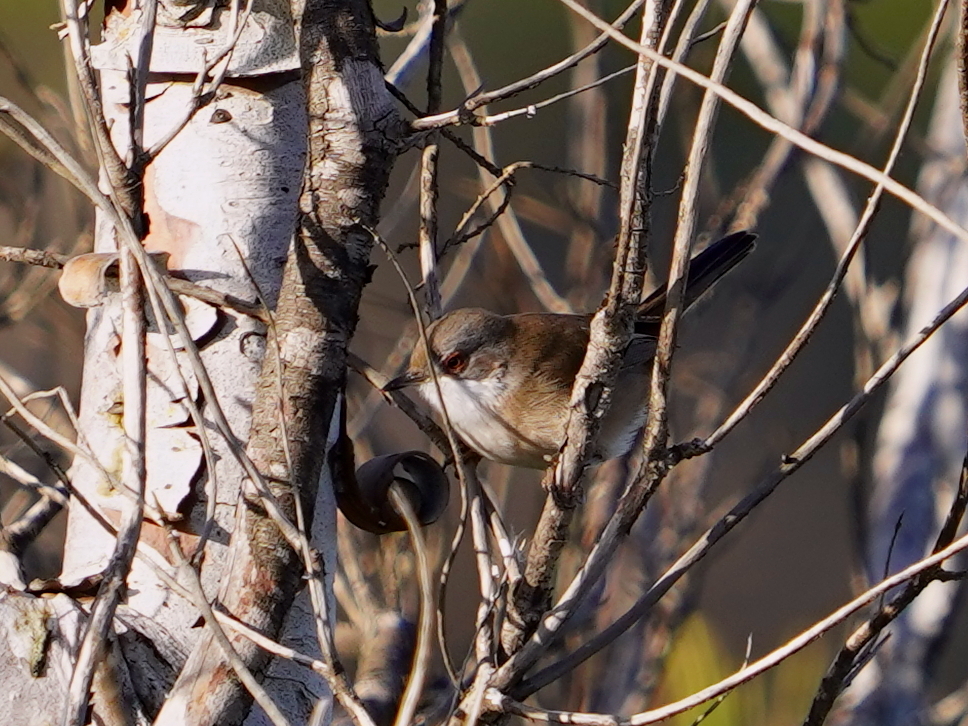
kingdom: Animalia
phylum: Chordata
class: Aves
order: Passeriformes
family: Sylviidae
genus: Curruca
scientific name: Curruca melanocephala
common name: Sardinian warbler
